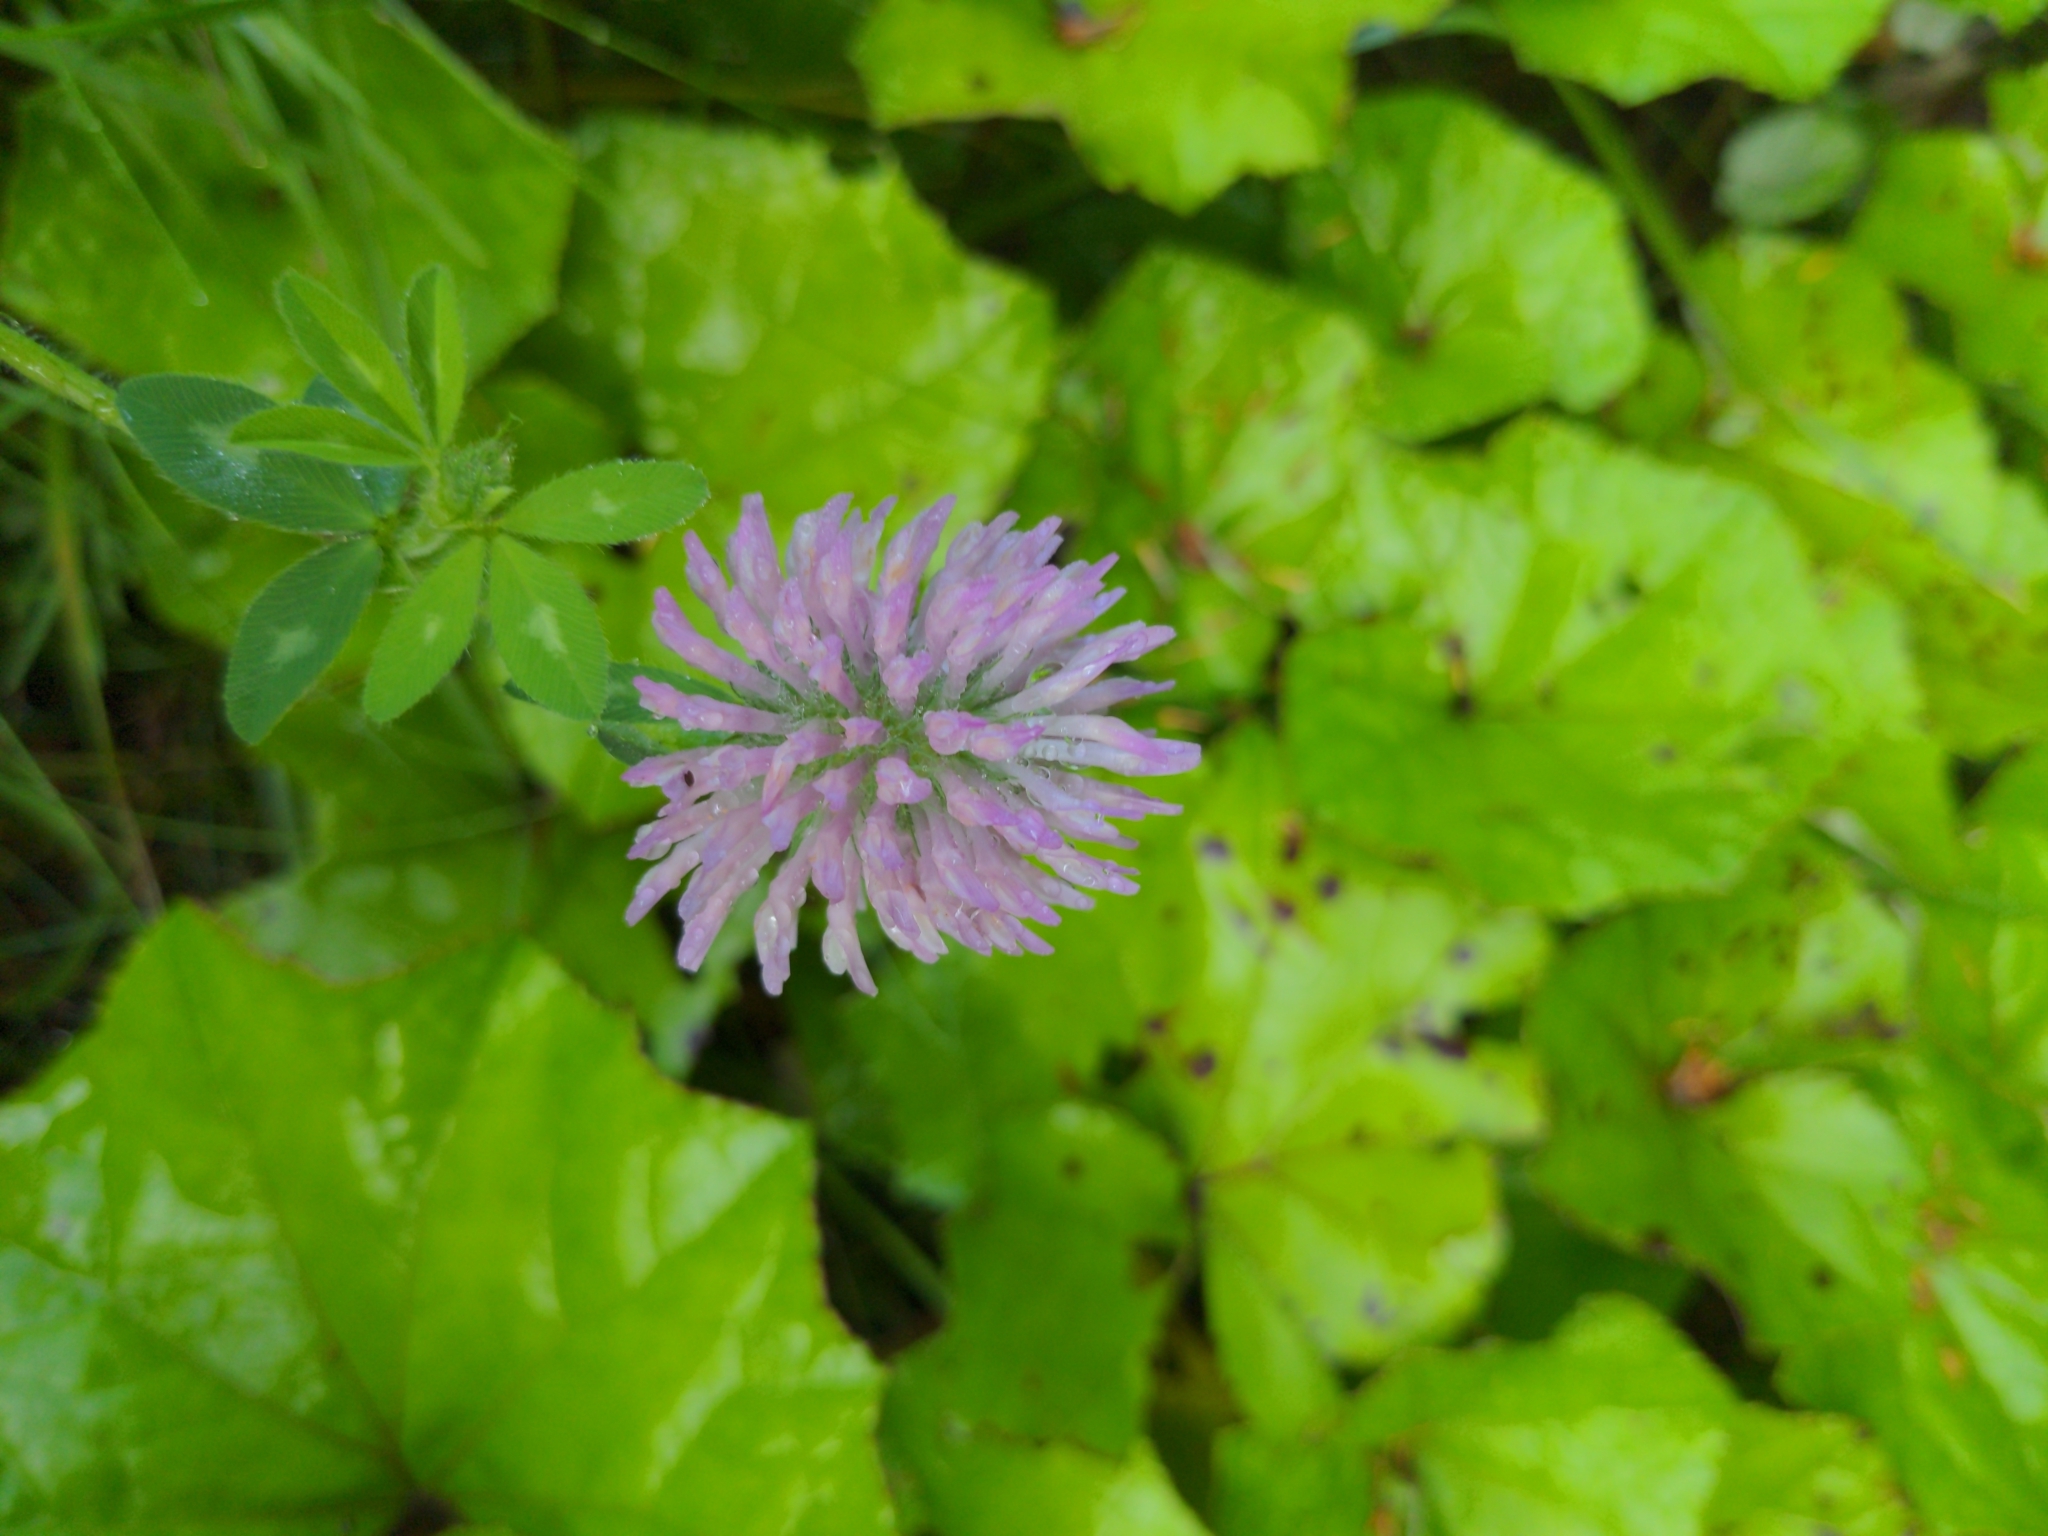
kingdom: Plantae
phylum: Tracheophyta
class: Magnoliopsida
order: Fabales
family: Fabaceae
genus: Trifolium
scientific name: Trifolium pratense
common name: Red clover
